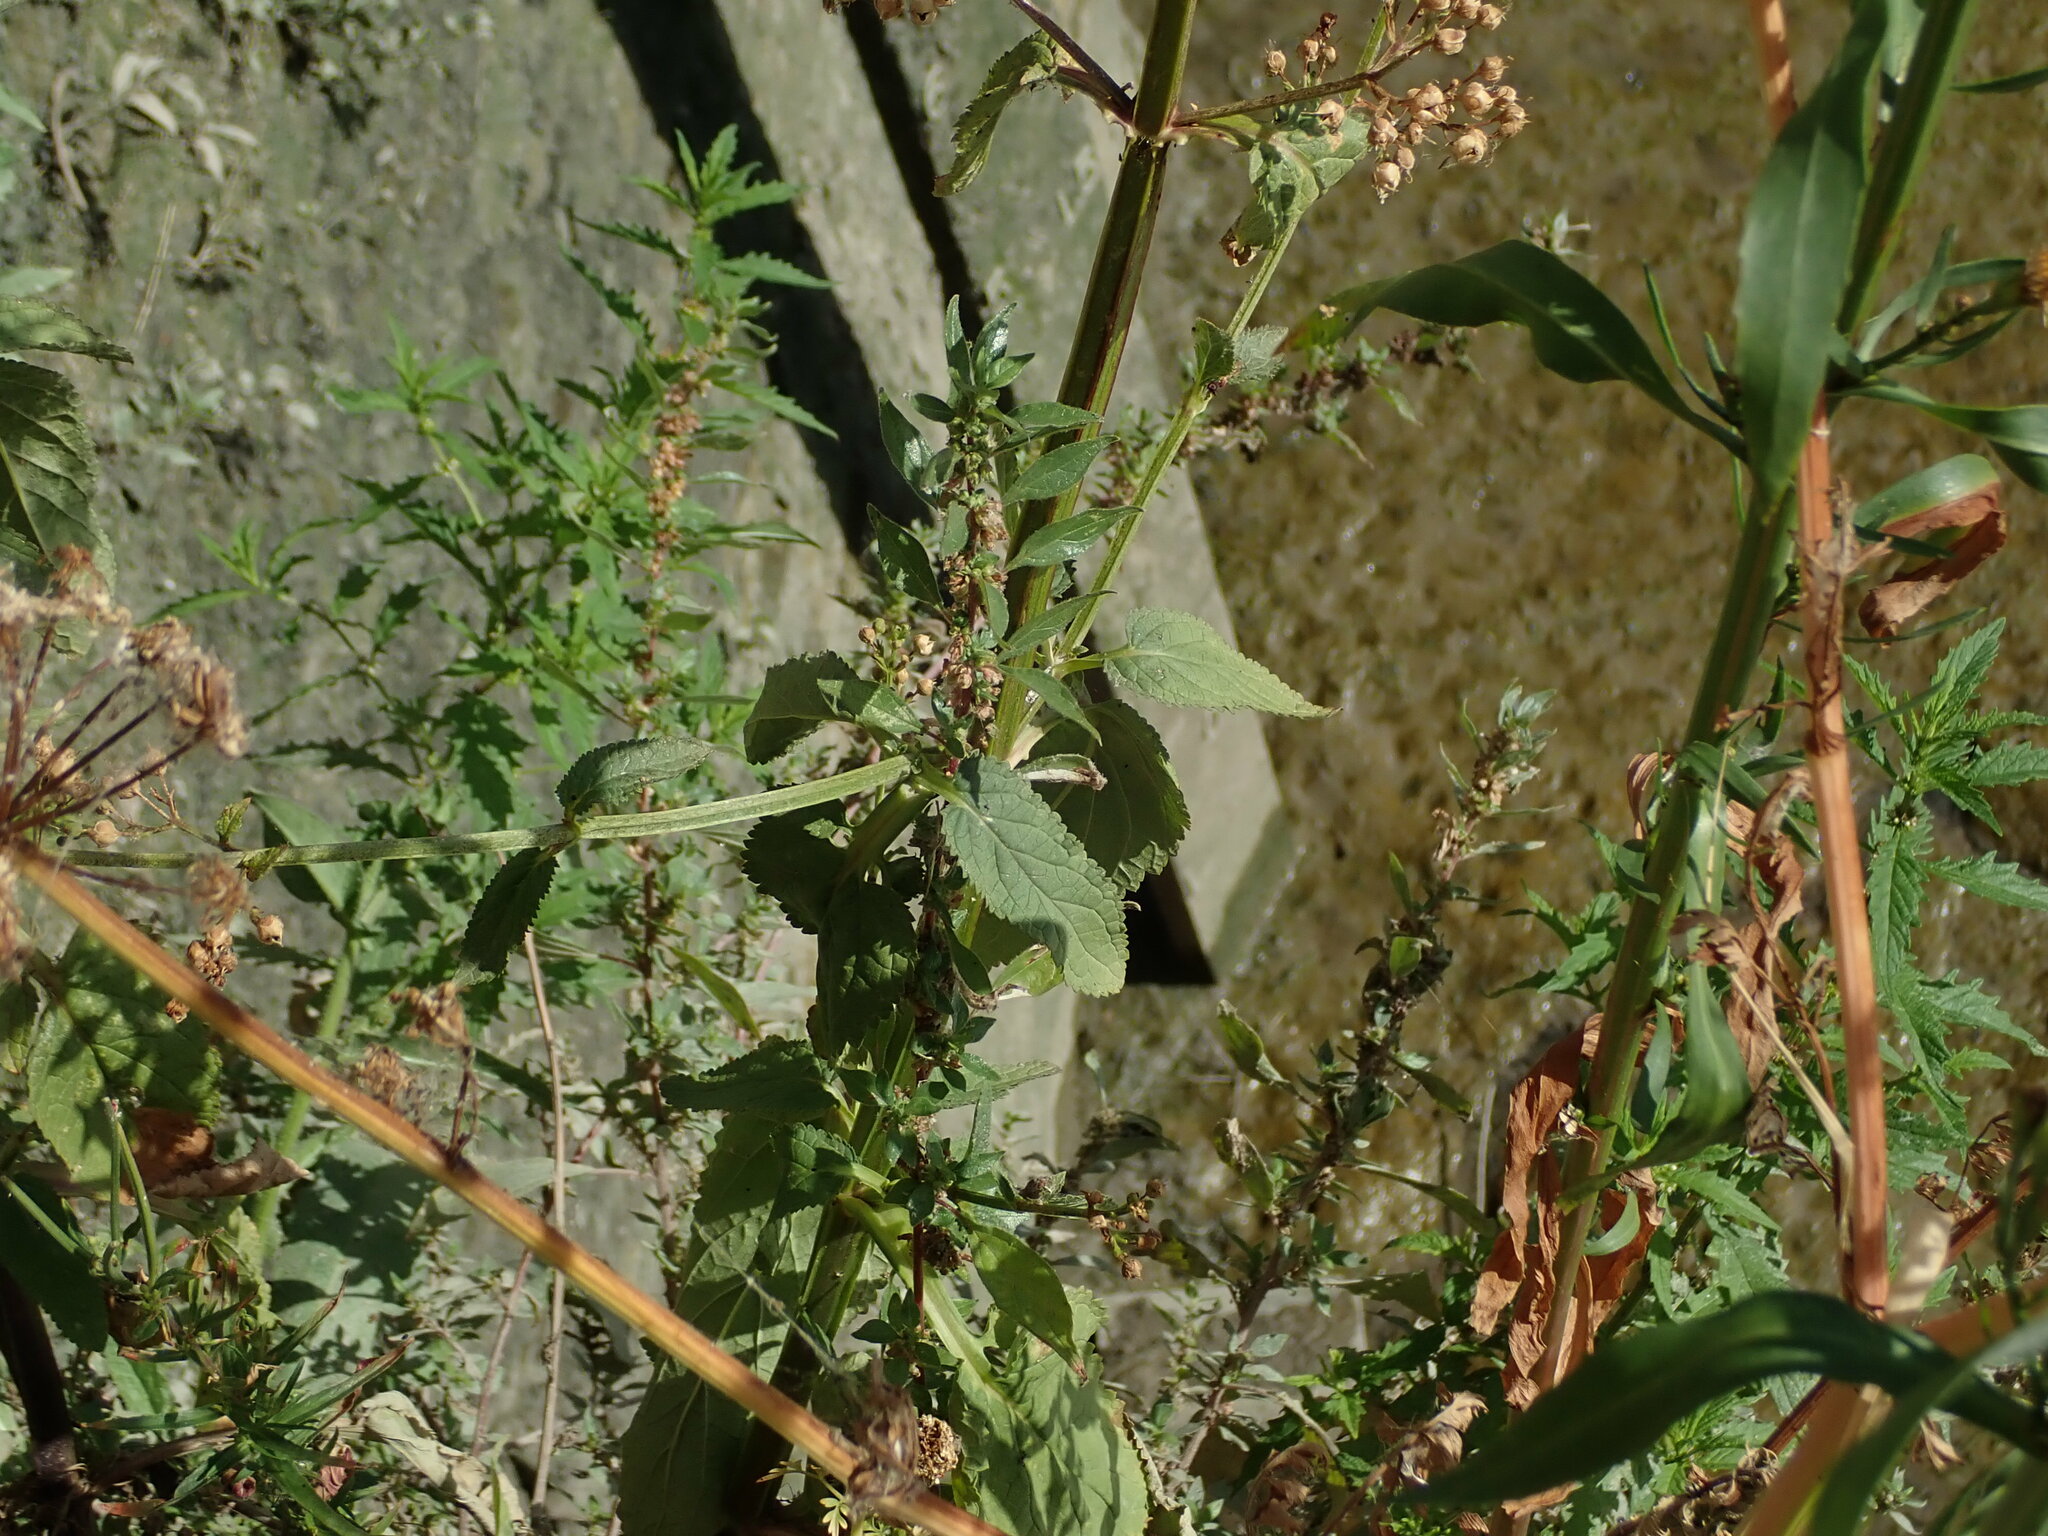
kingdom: Plantae
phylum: Tracheophyta
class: Magnoliopsida
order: Lamiales
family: Scrophulariaceae
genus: Scrophularia
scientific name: Scrophularia auriculata
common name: Water betony
